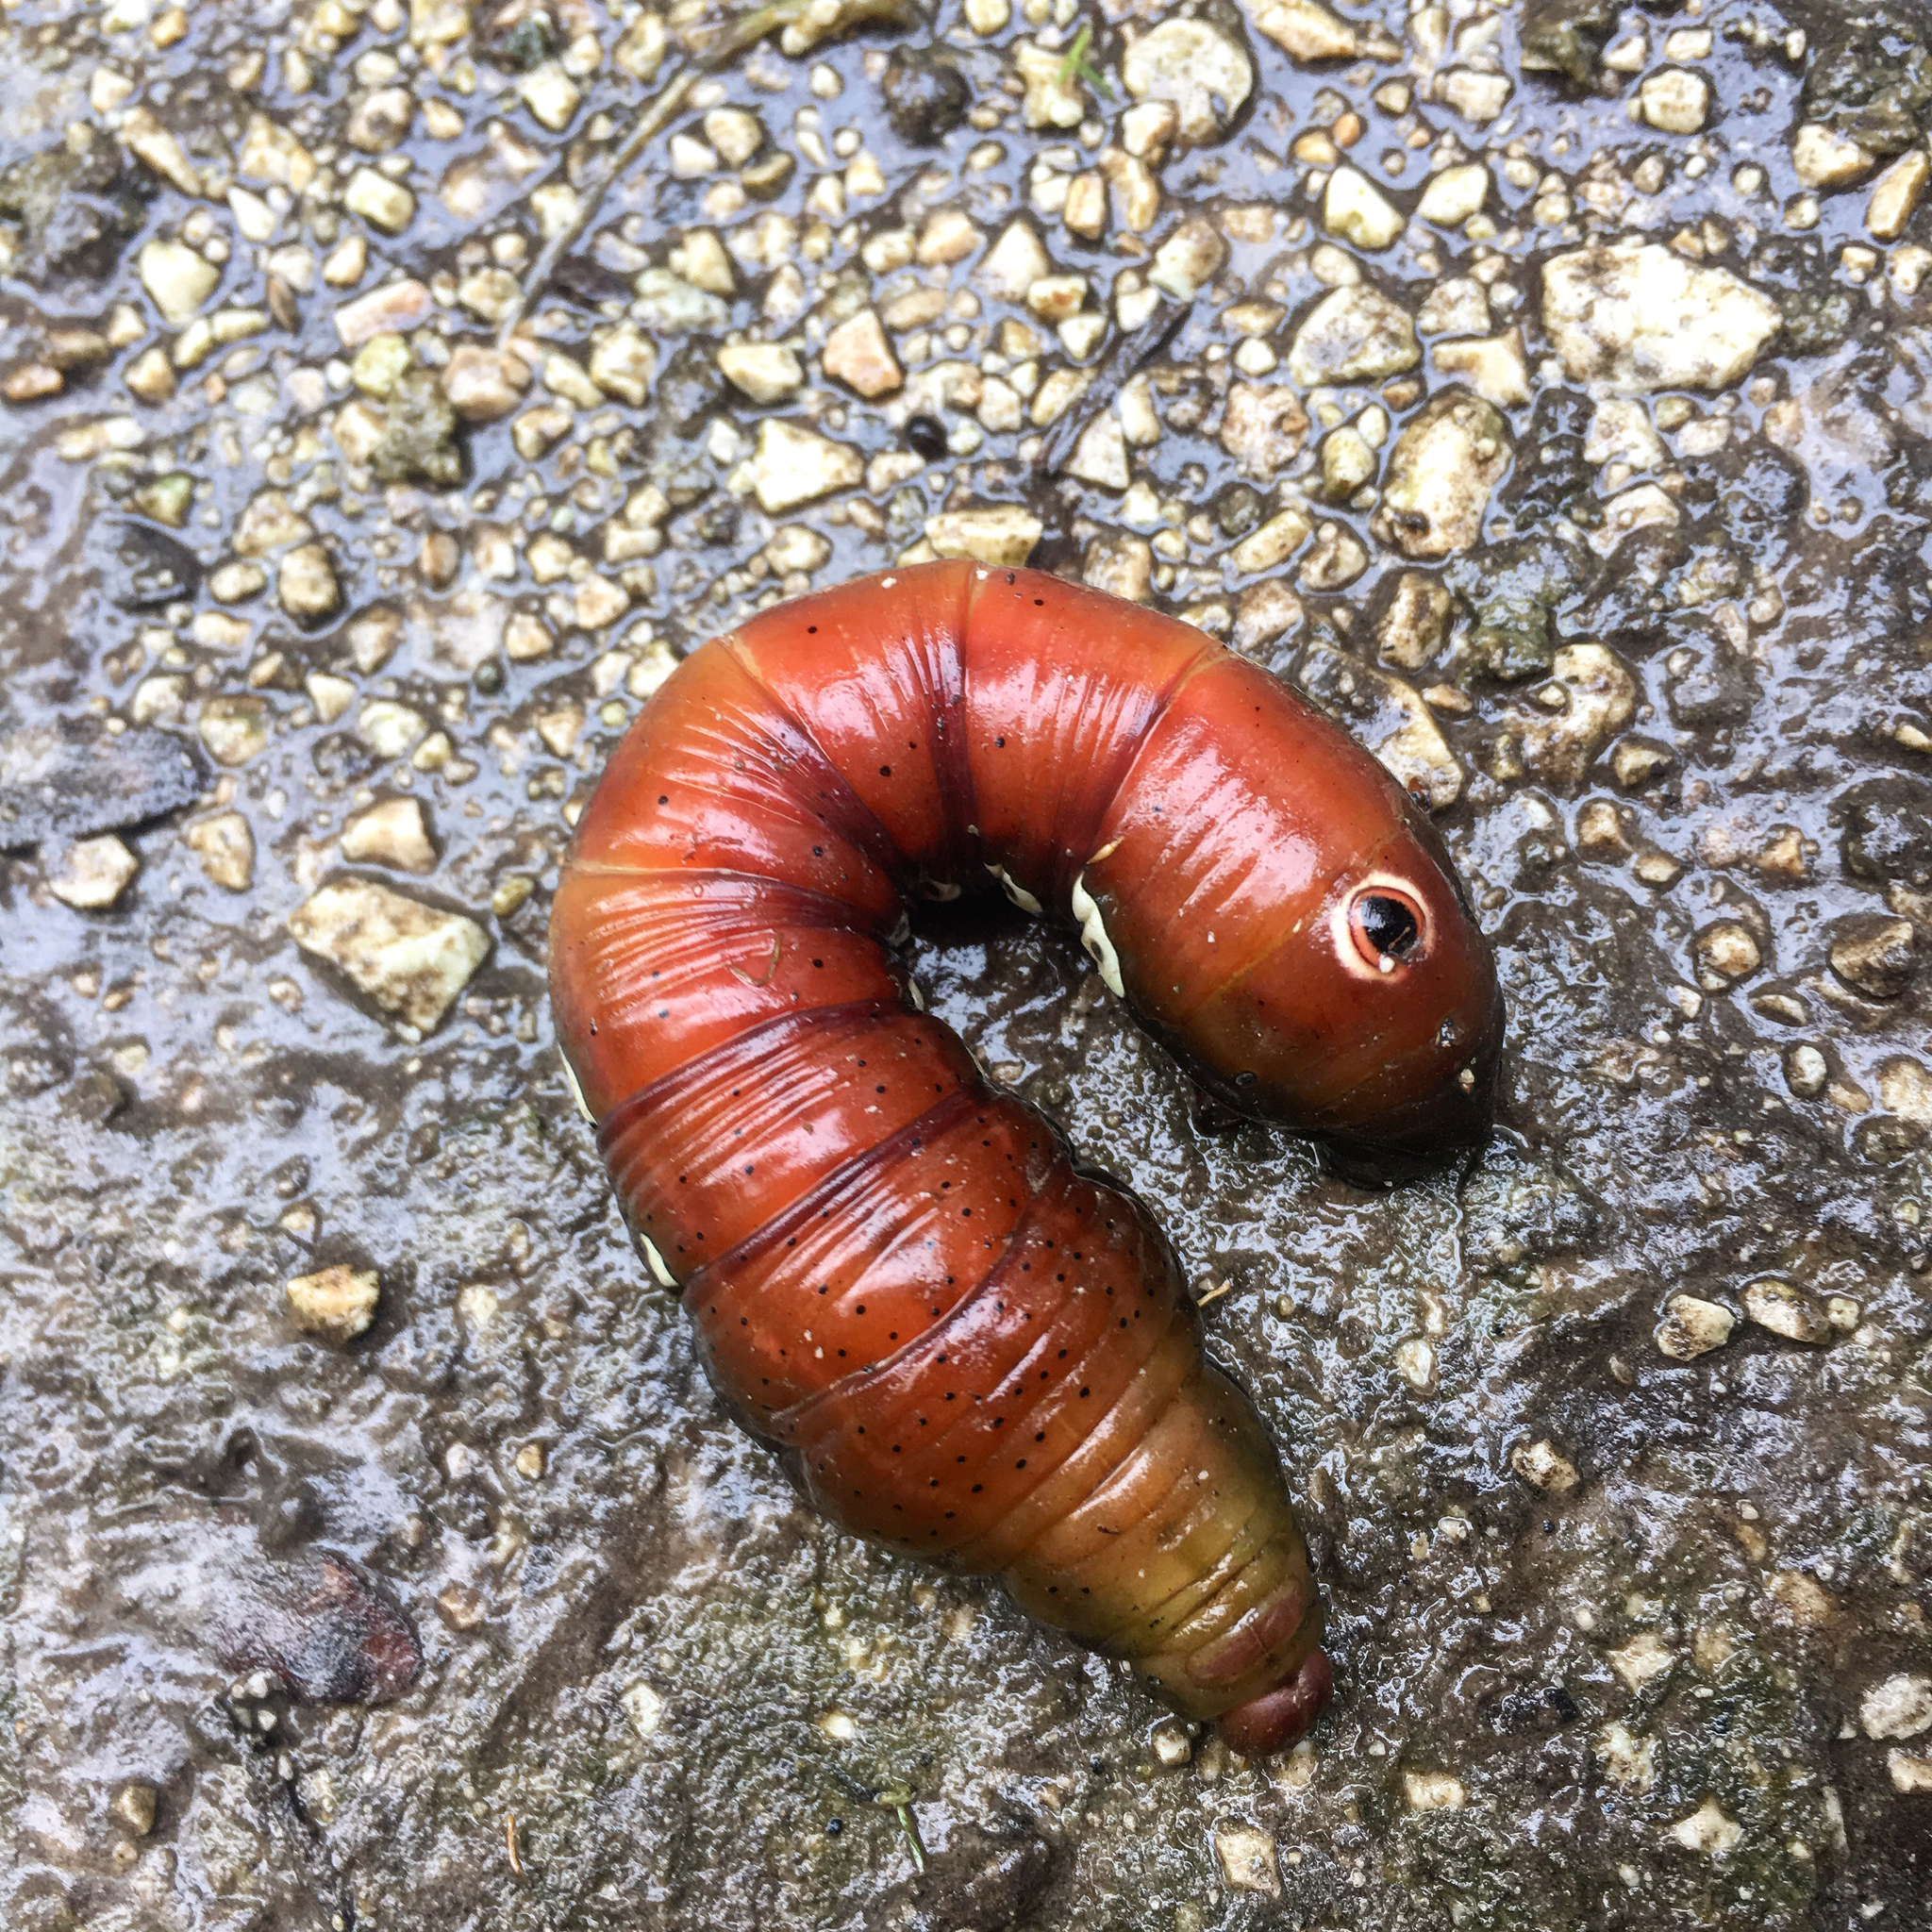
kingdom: Animalia
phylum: Arthropoda
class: Insecta
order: Lepidoptera
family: Sphingidae
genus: Eumorpha
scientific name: Eumorpha pandorus
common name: Pandora sphinx
